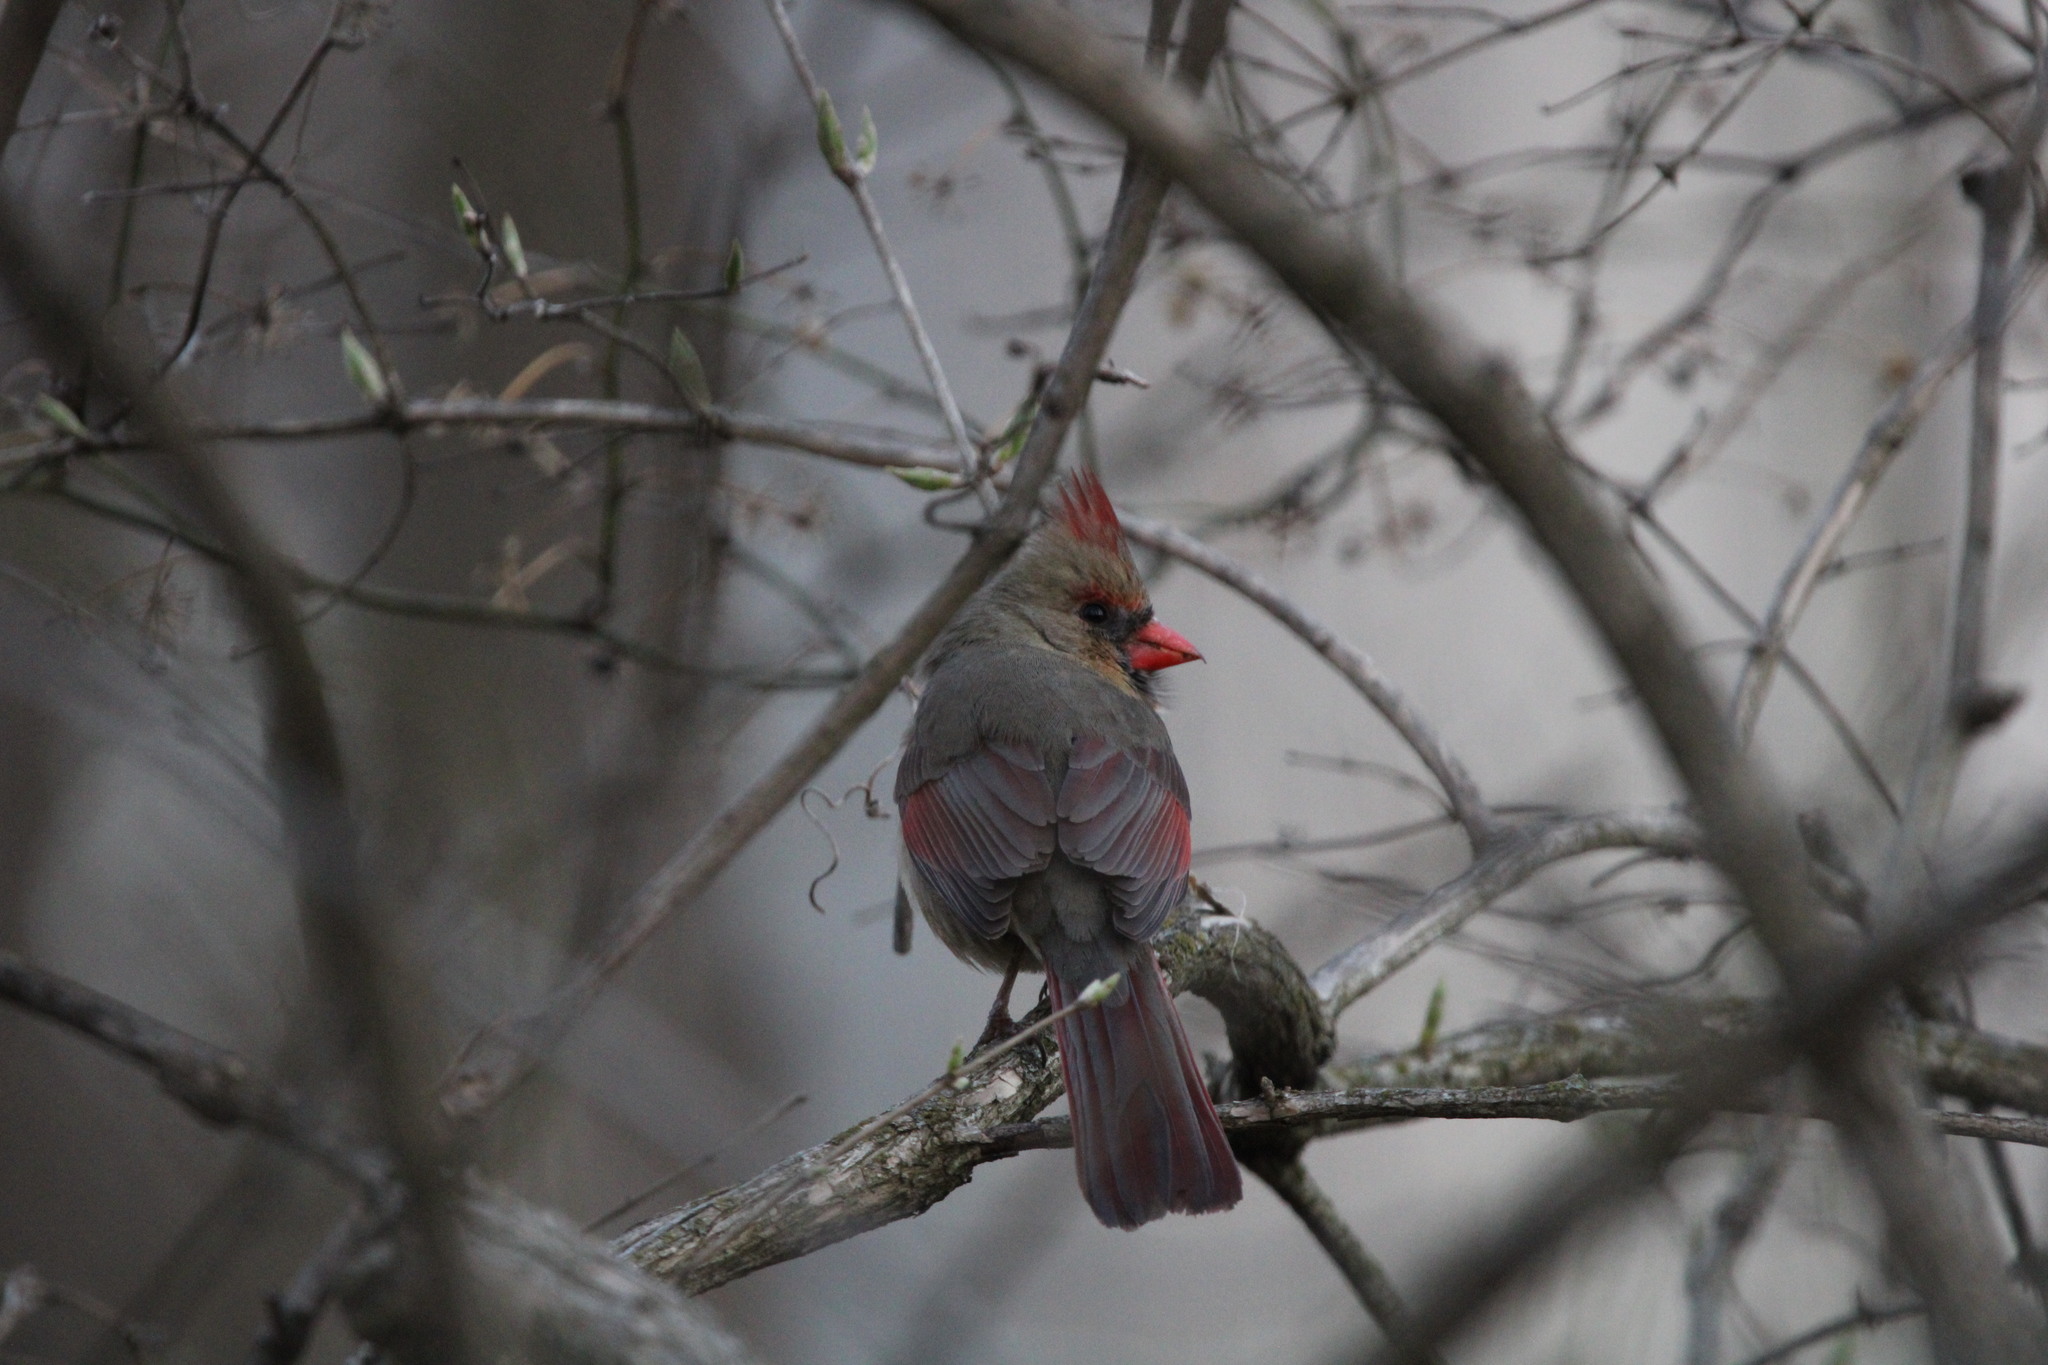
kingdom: Animalia
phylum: Chordata
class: Aves
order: Passeriformes
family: Cardinalidae
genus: Cardinalis
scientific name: Cardinalis cardinalis
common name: Northern cardinal
